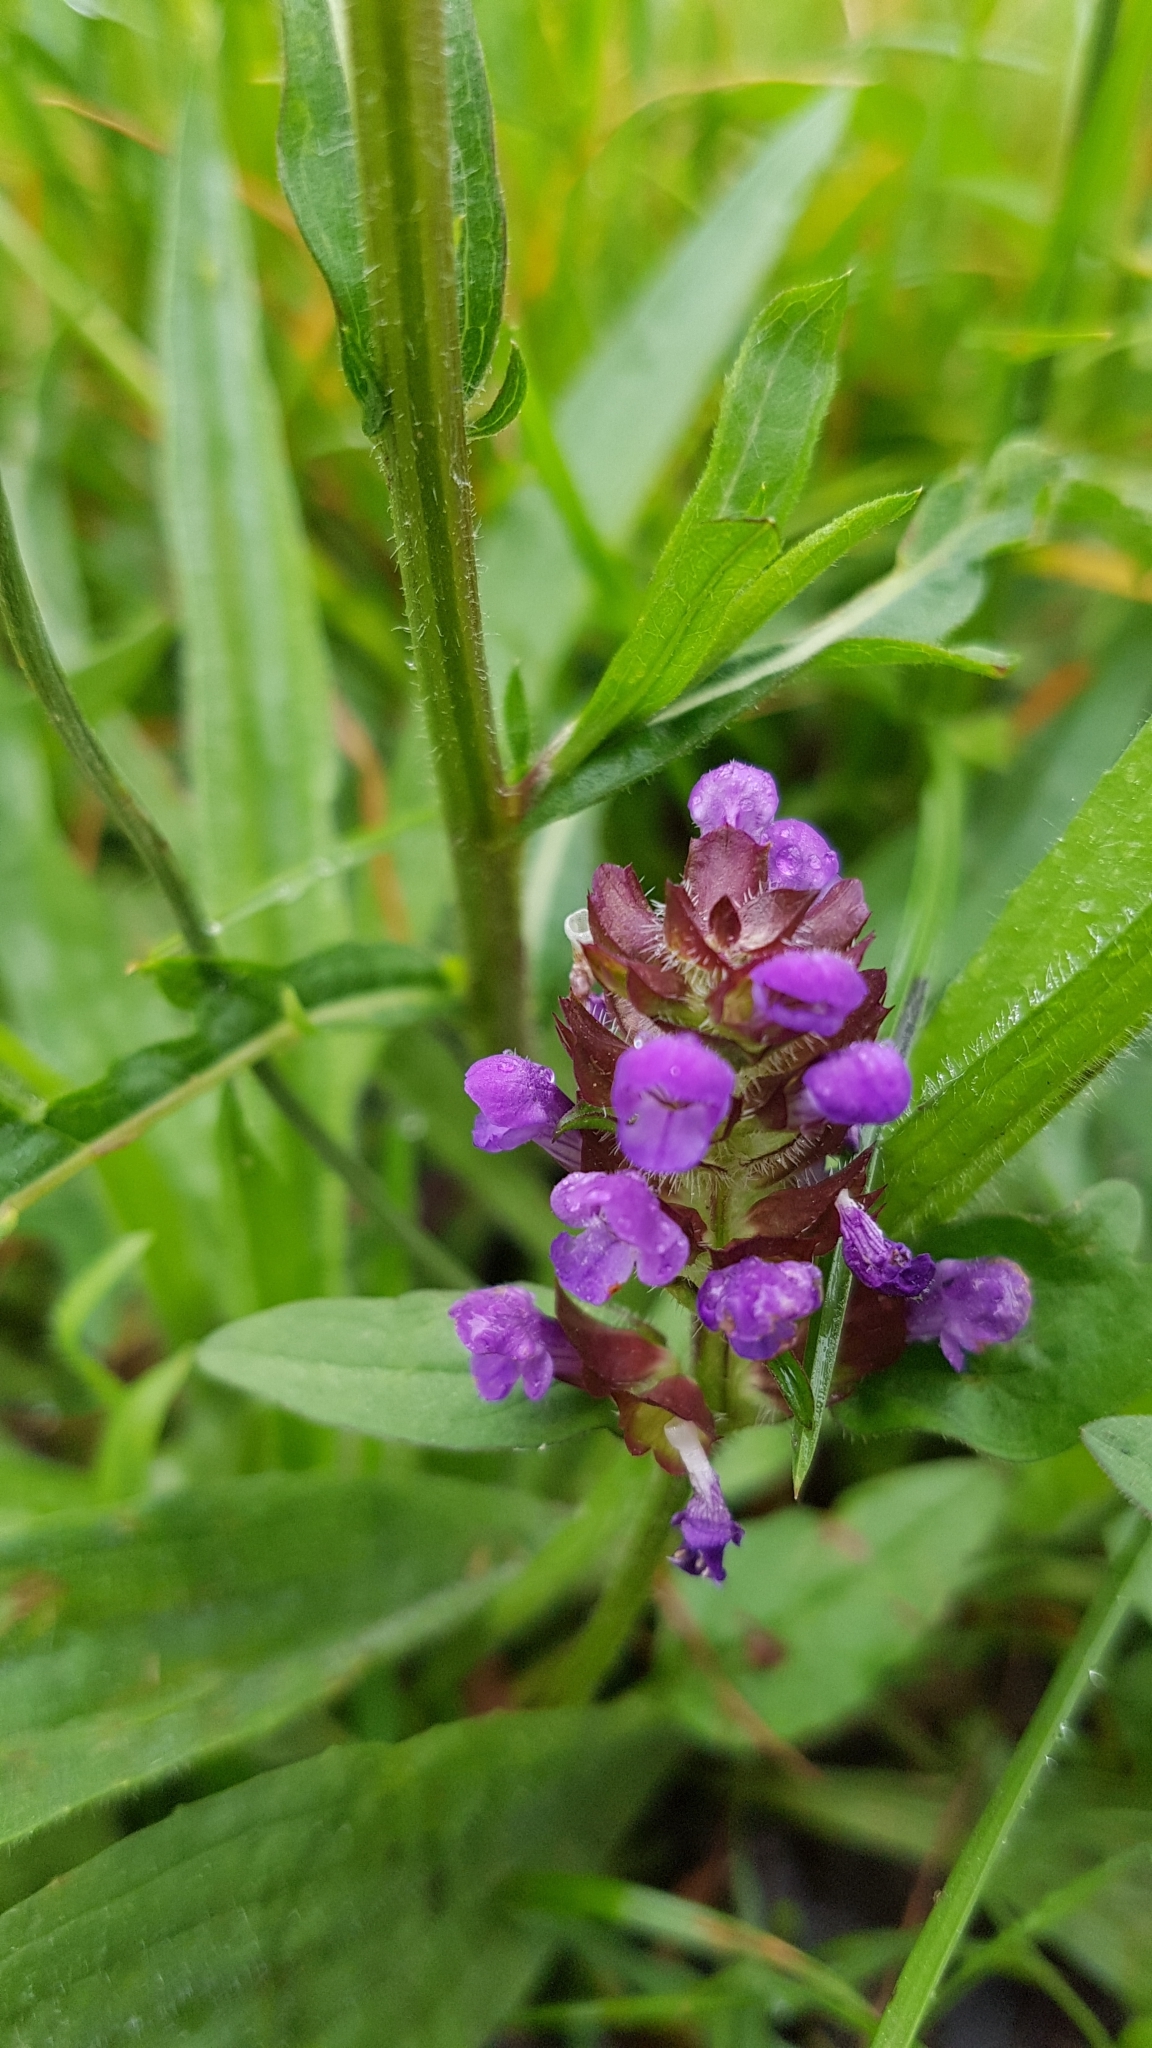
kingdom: Plantae
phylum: Tracheophyta
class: Magnoliopsida
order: Lamiales
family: Lamiaceae
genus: Prunella
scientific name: Prunella vulgaris
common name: Heal-all
